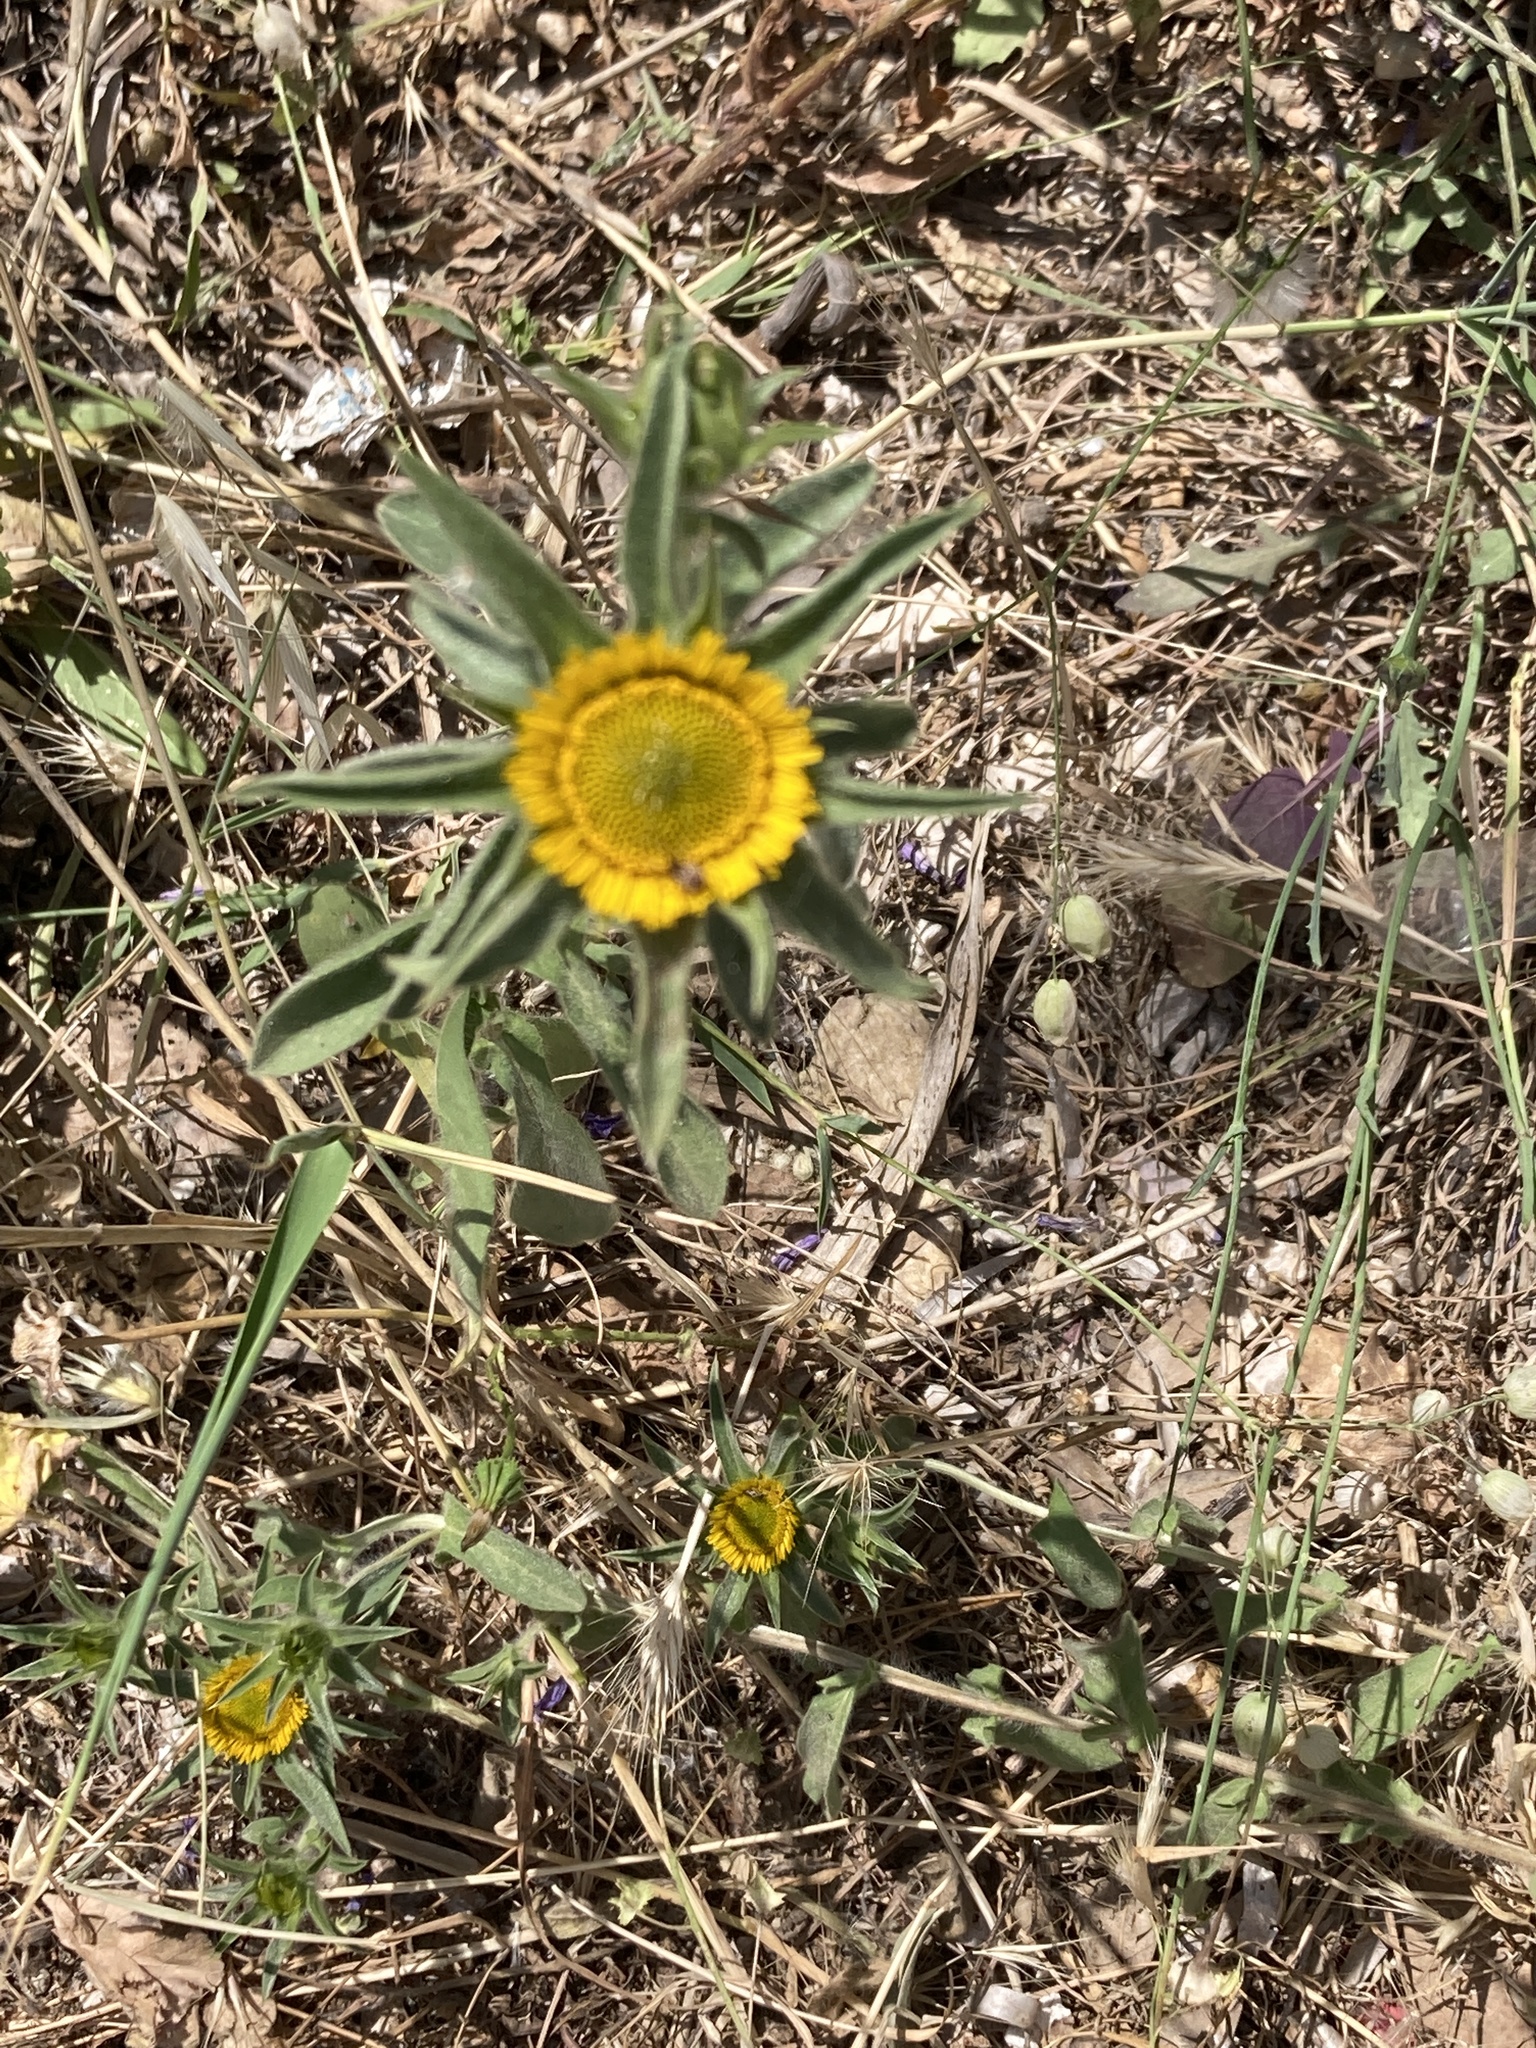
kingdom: Plantae
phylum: Tracheophyta
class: Magnoliopsida
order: Asterales
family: Asteraceae
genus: Pallenis
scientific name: Pallenis spinosa
